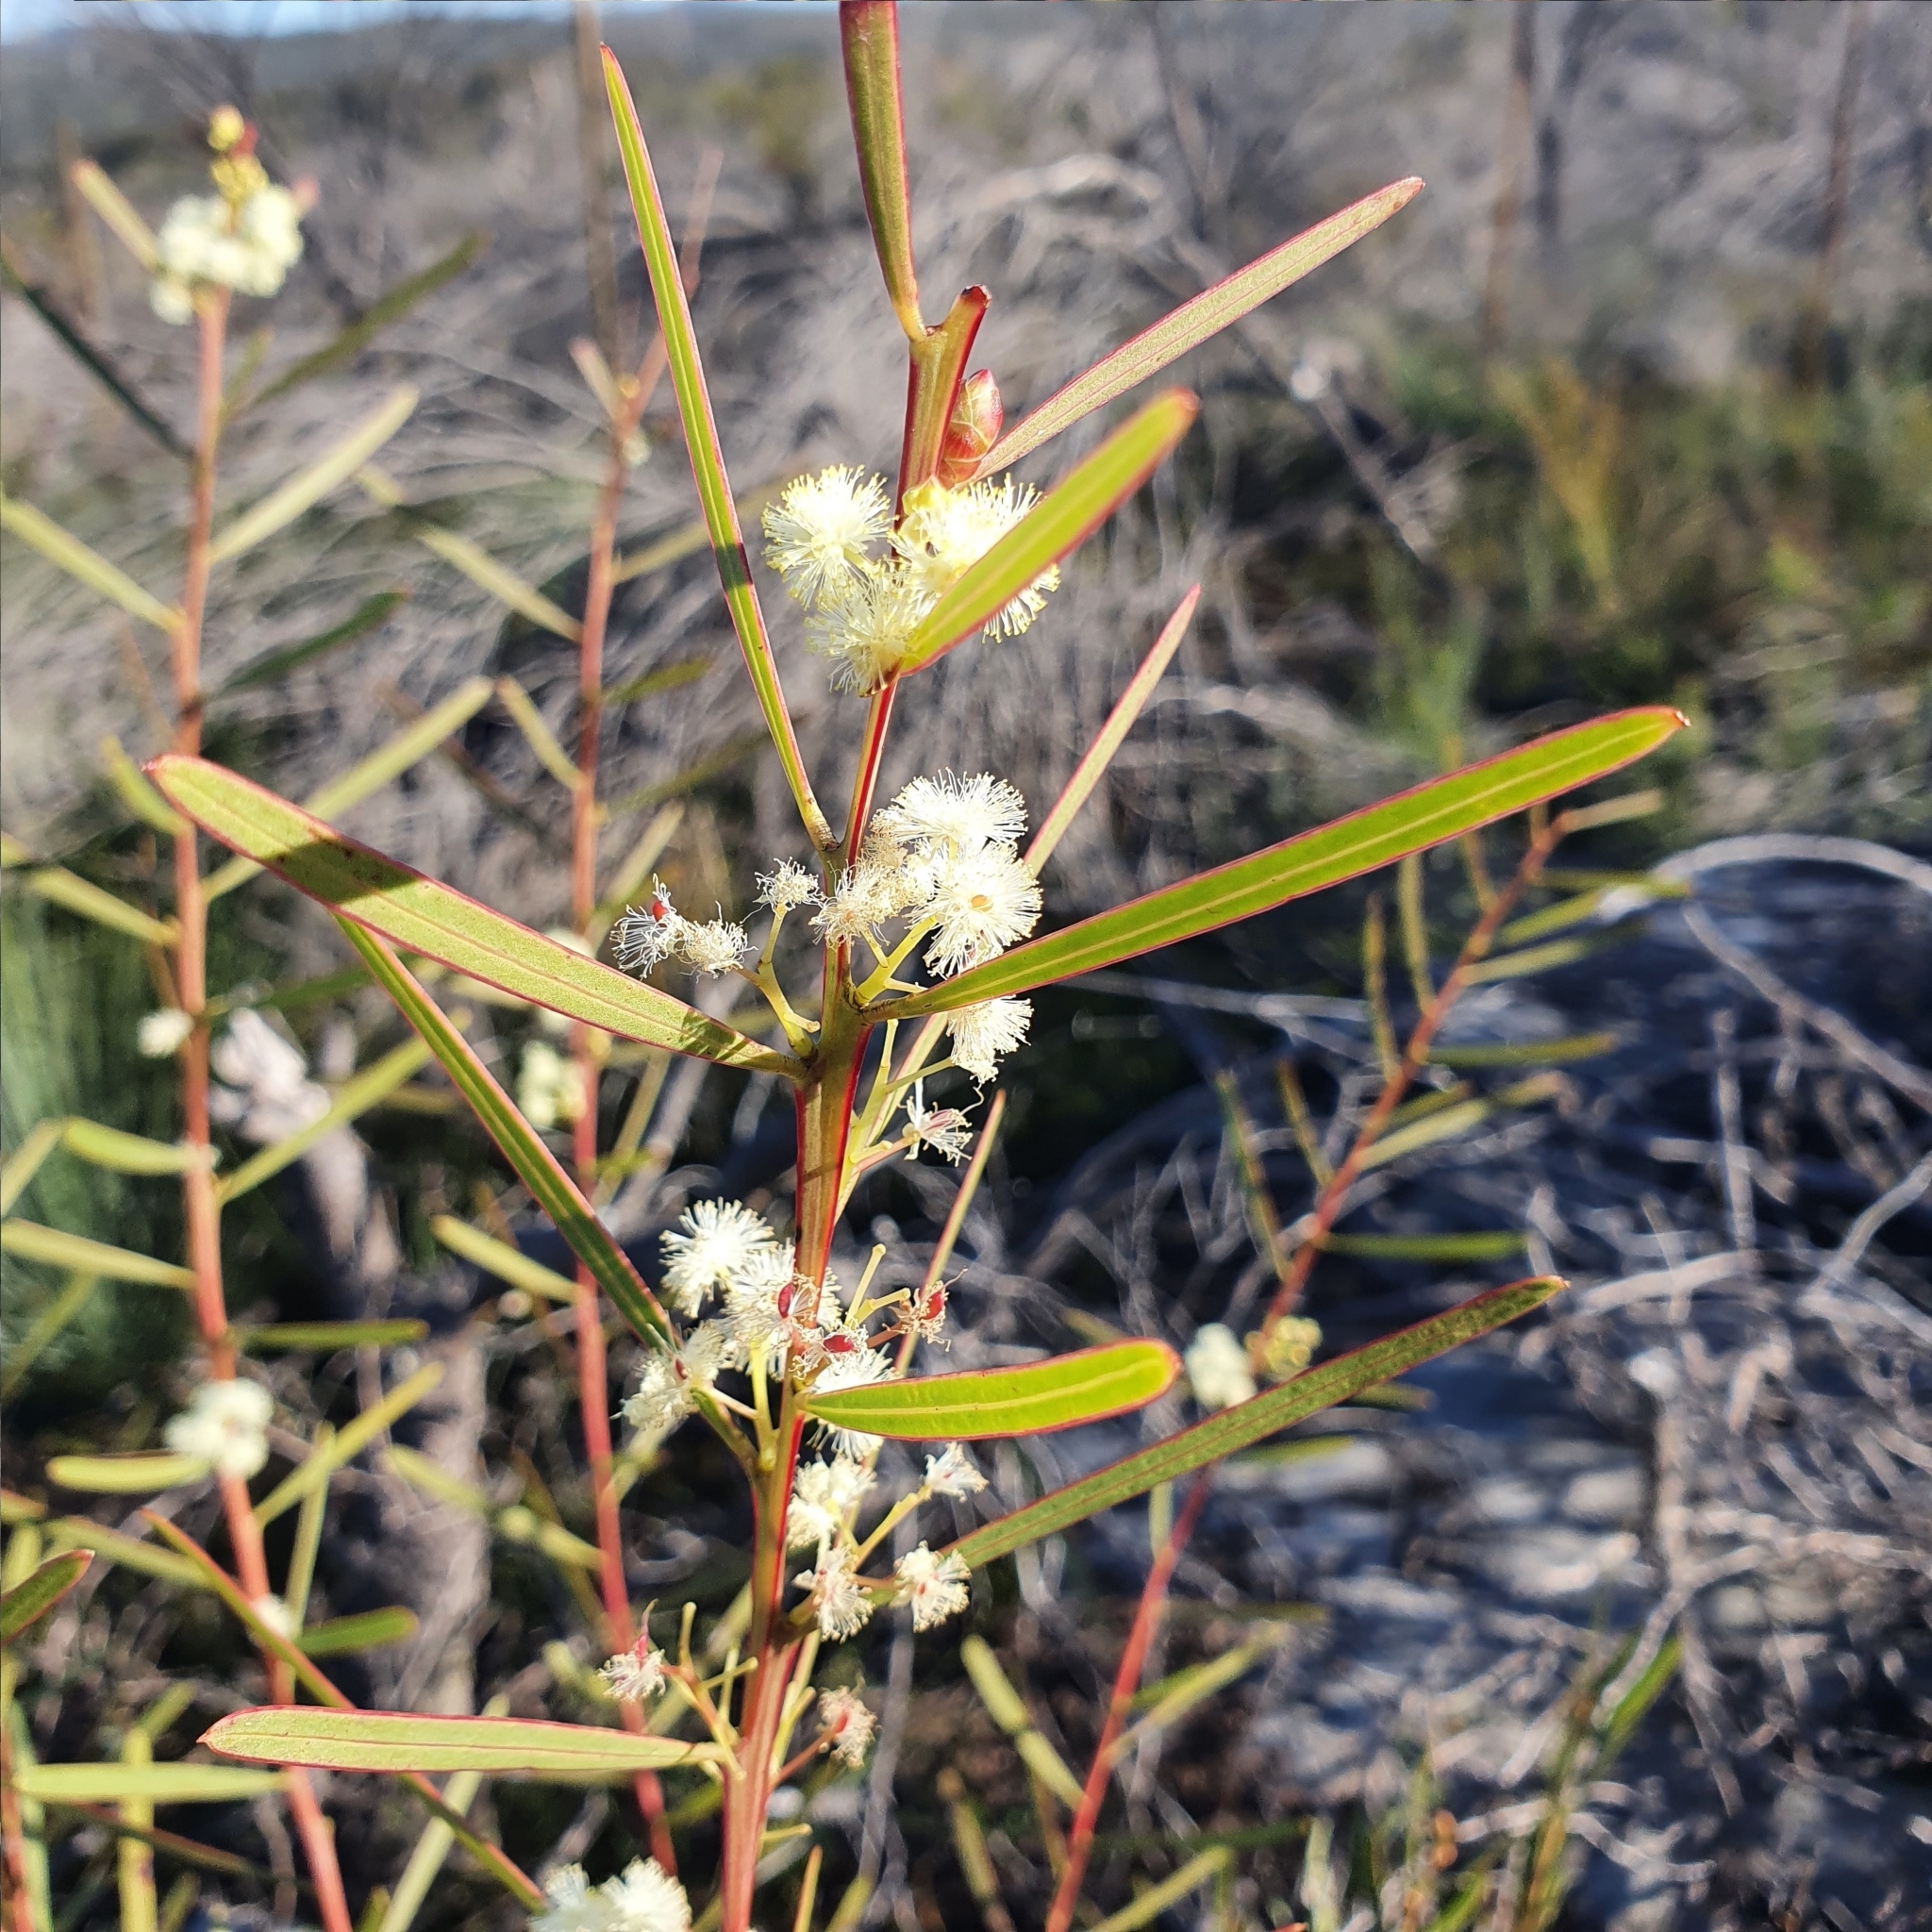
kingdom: Plantae
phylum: Tracheophyta
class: Magnoliopsida
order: Fabales
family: Fabaceae
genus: Acacia
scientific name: Acacia suaveolens
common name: Sweet acacia
